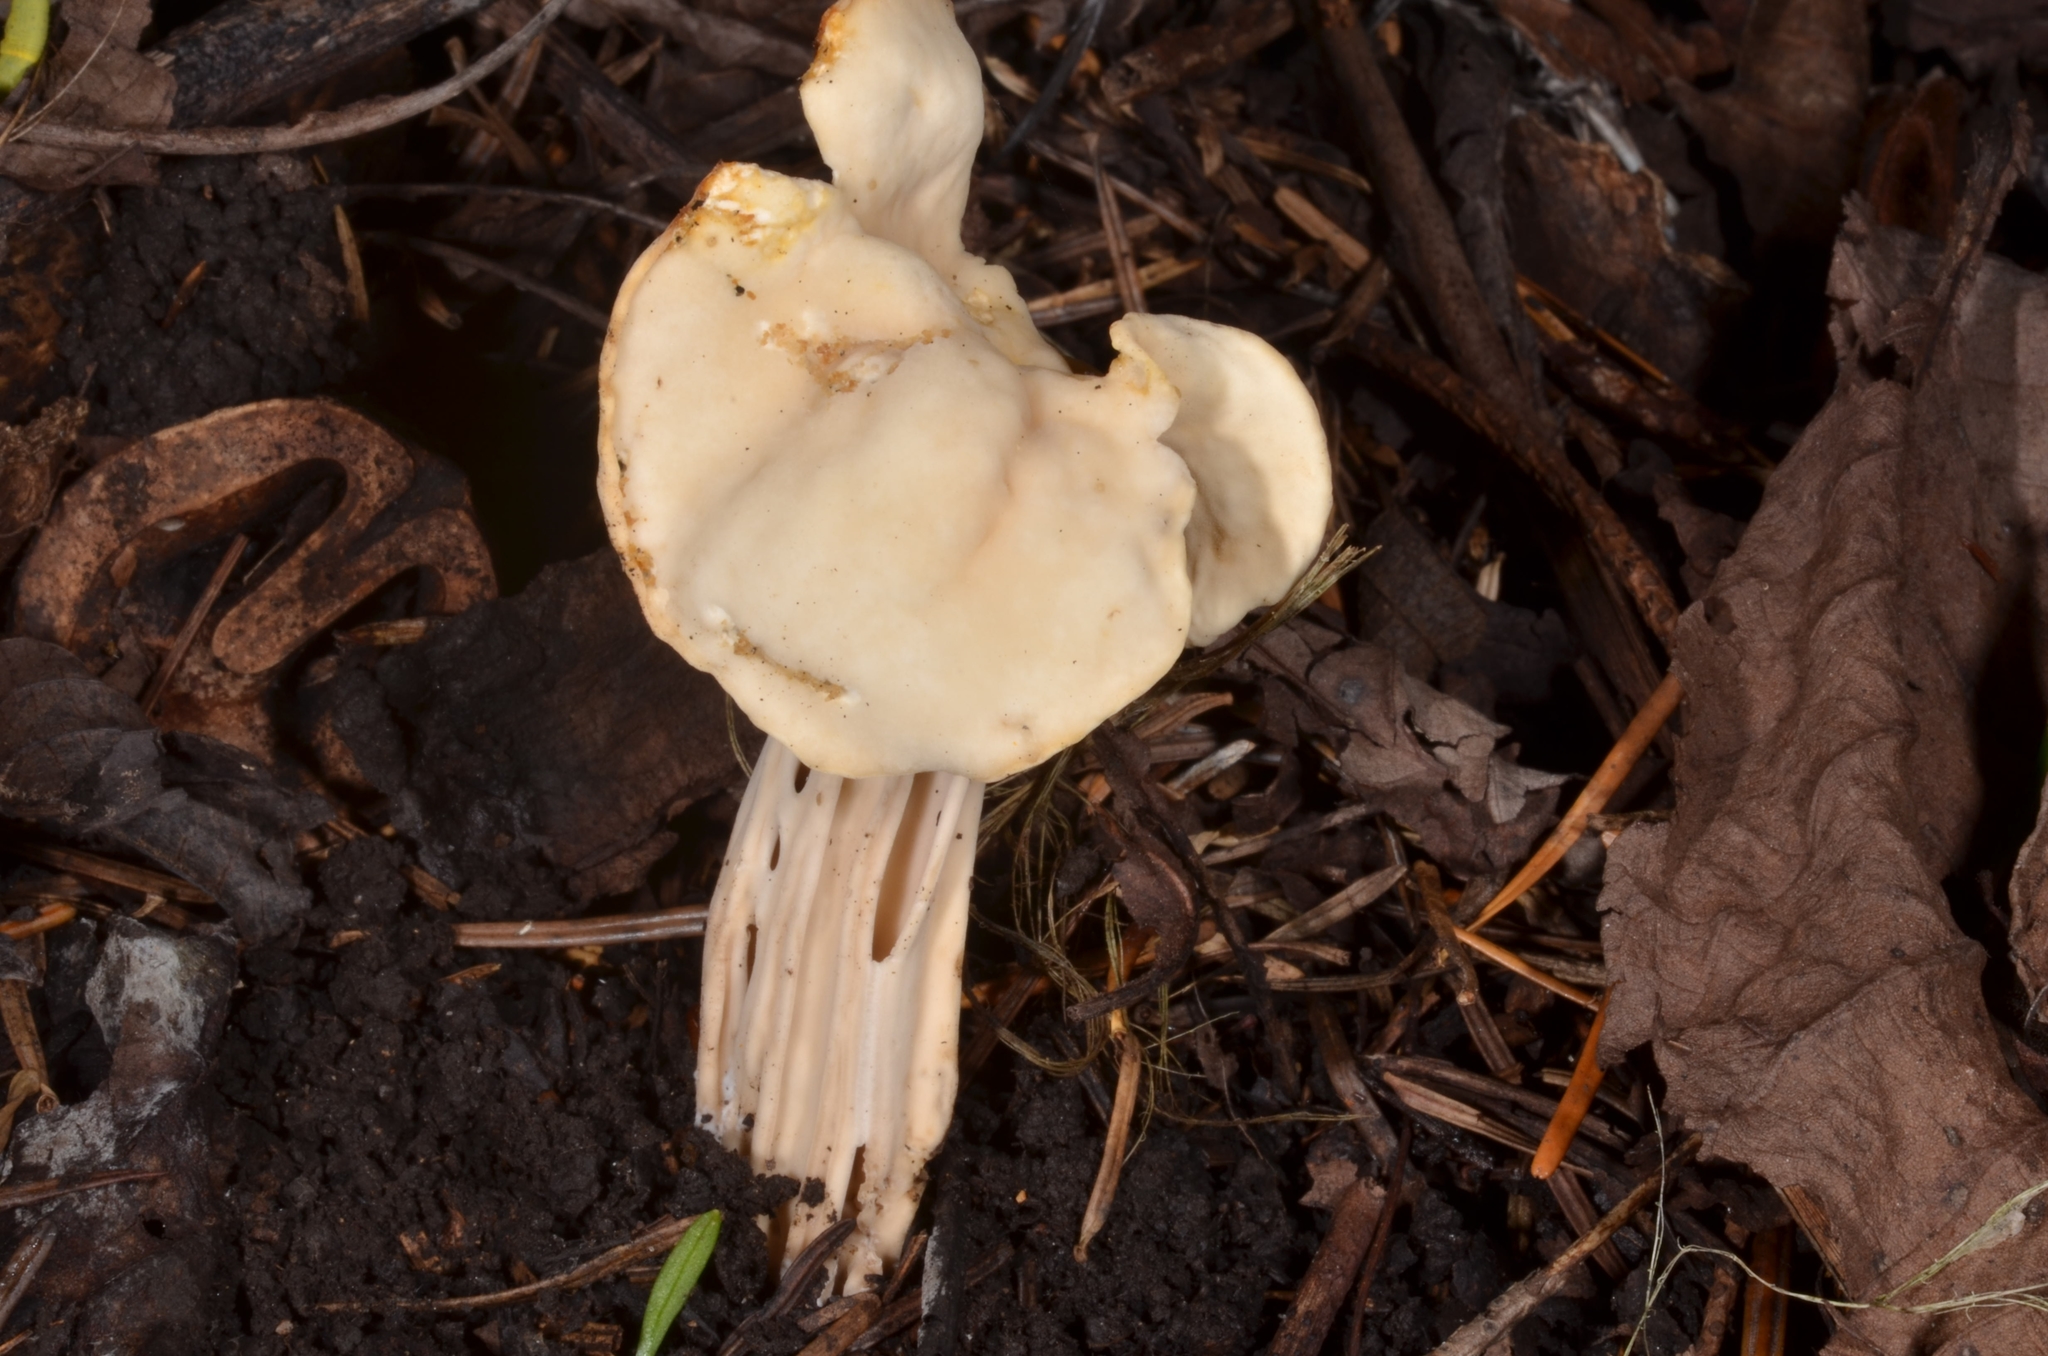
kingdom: Fungi
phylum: Ascomycota
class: Pezizomycetes
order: Pezizales
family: Helvellaceae
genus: Helvella
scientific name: Helvella crispa
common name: White saddle
